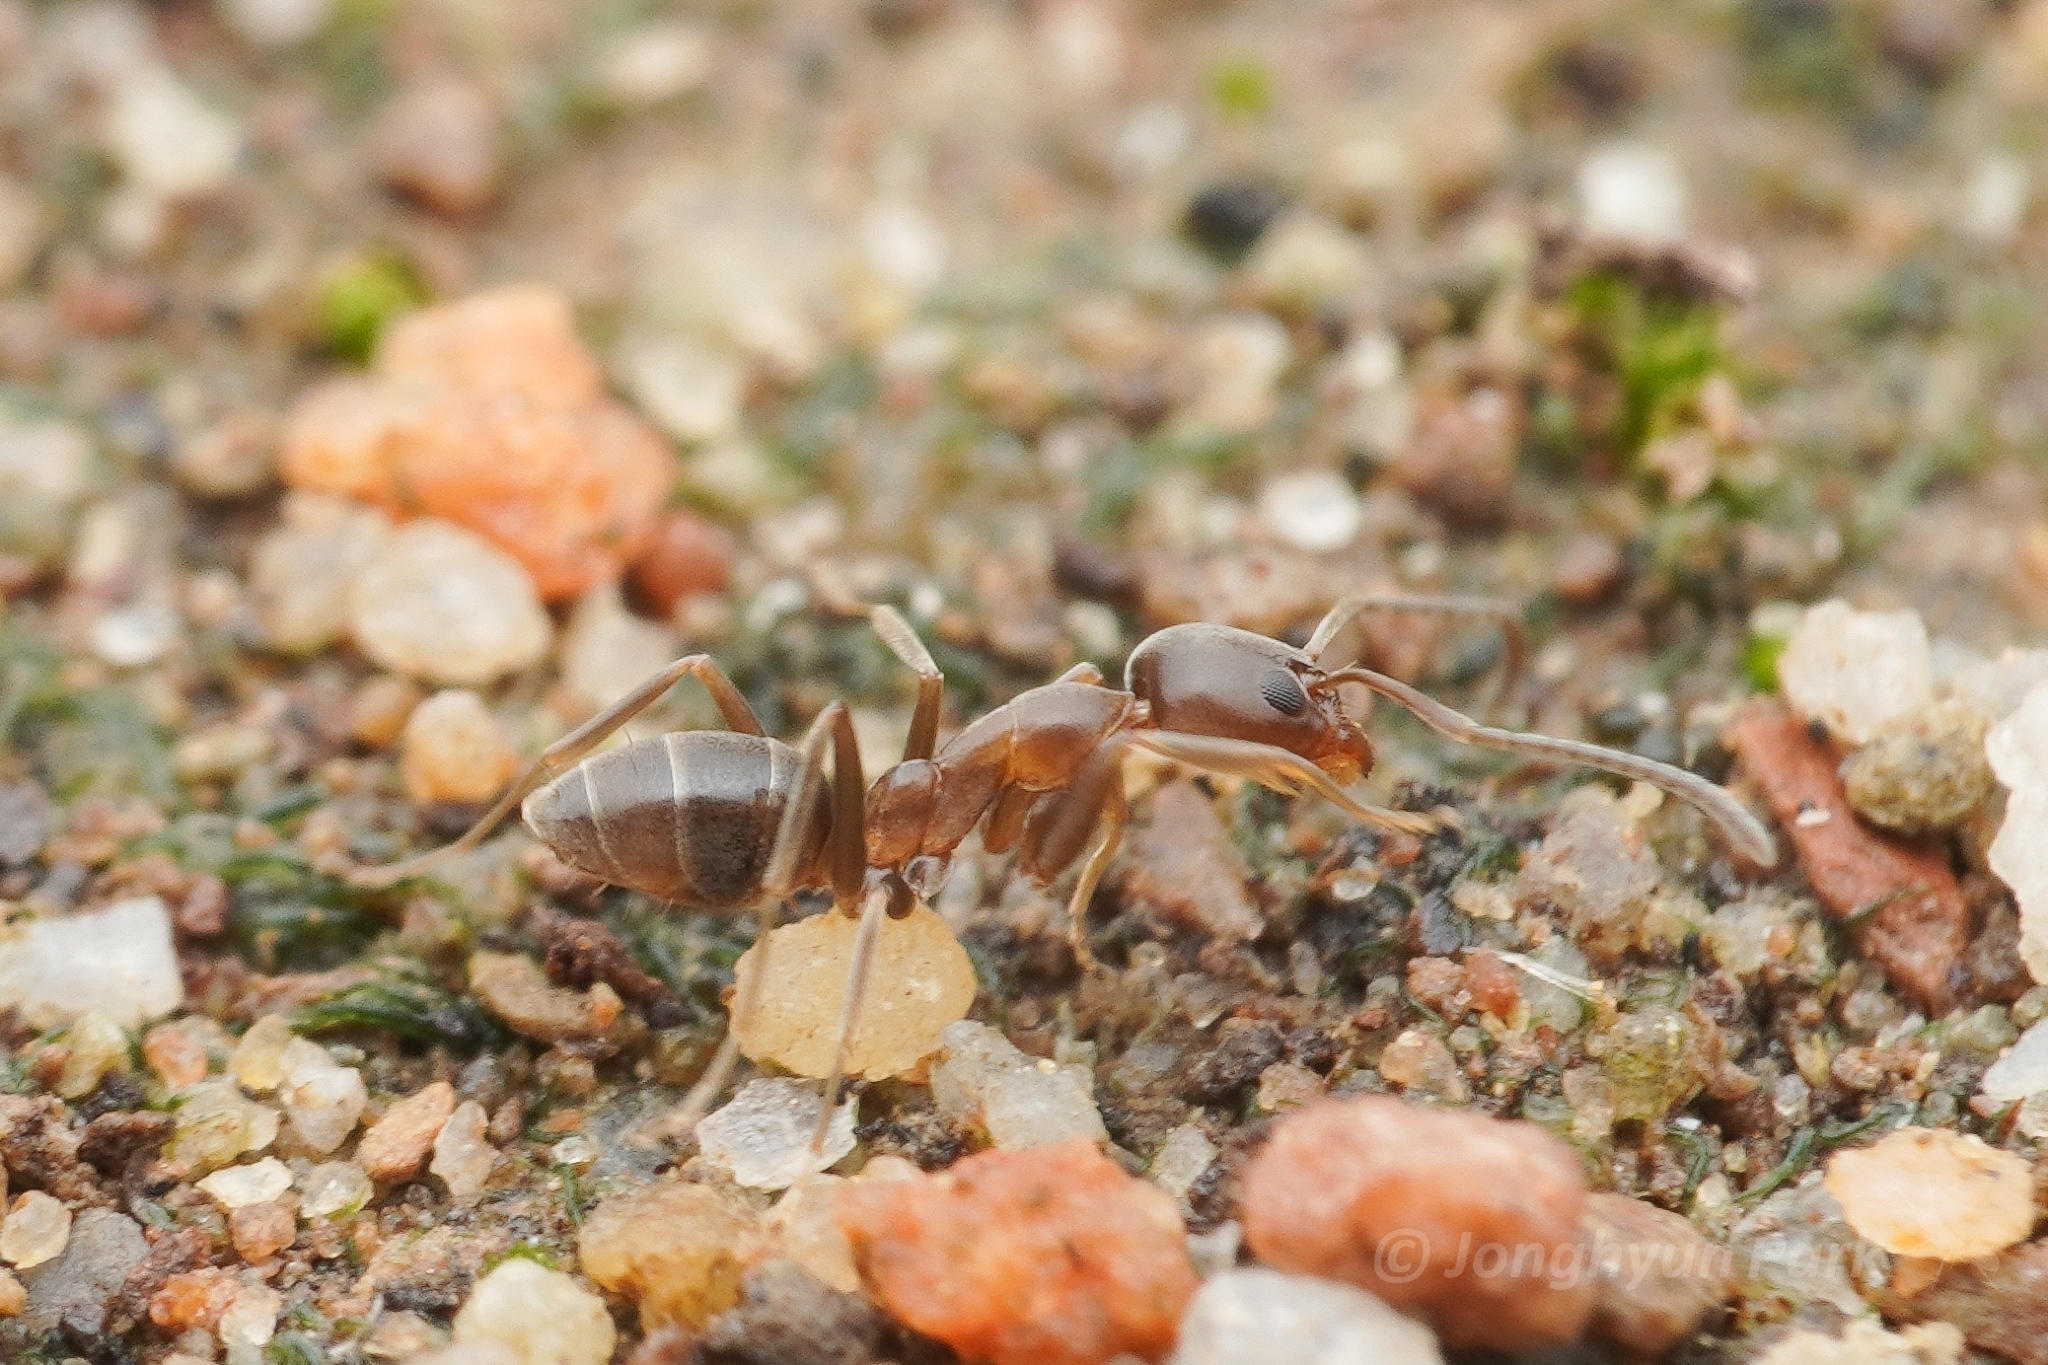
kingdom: Animalia
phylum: Arthropoda
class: Insecta
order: Hymenoptera
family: Formicidae
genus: Linepithema
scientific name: Linepithema humile
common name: Argentine ant
